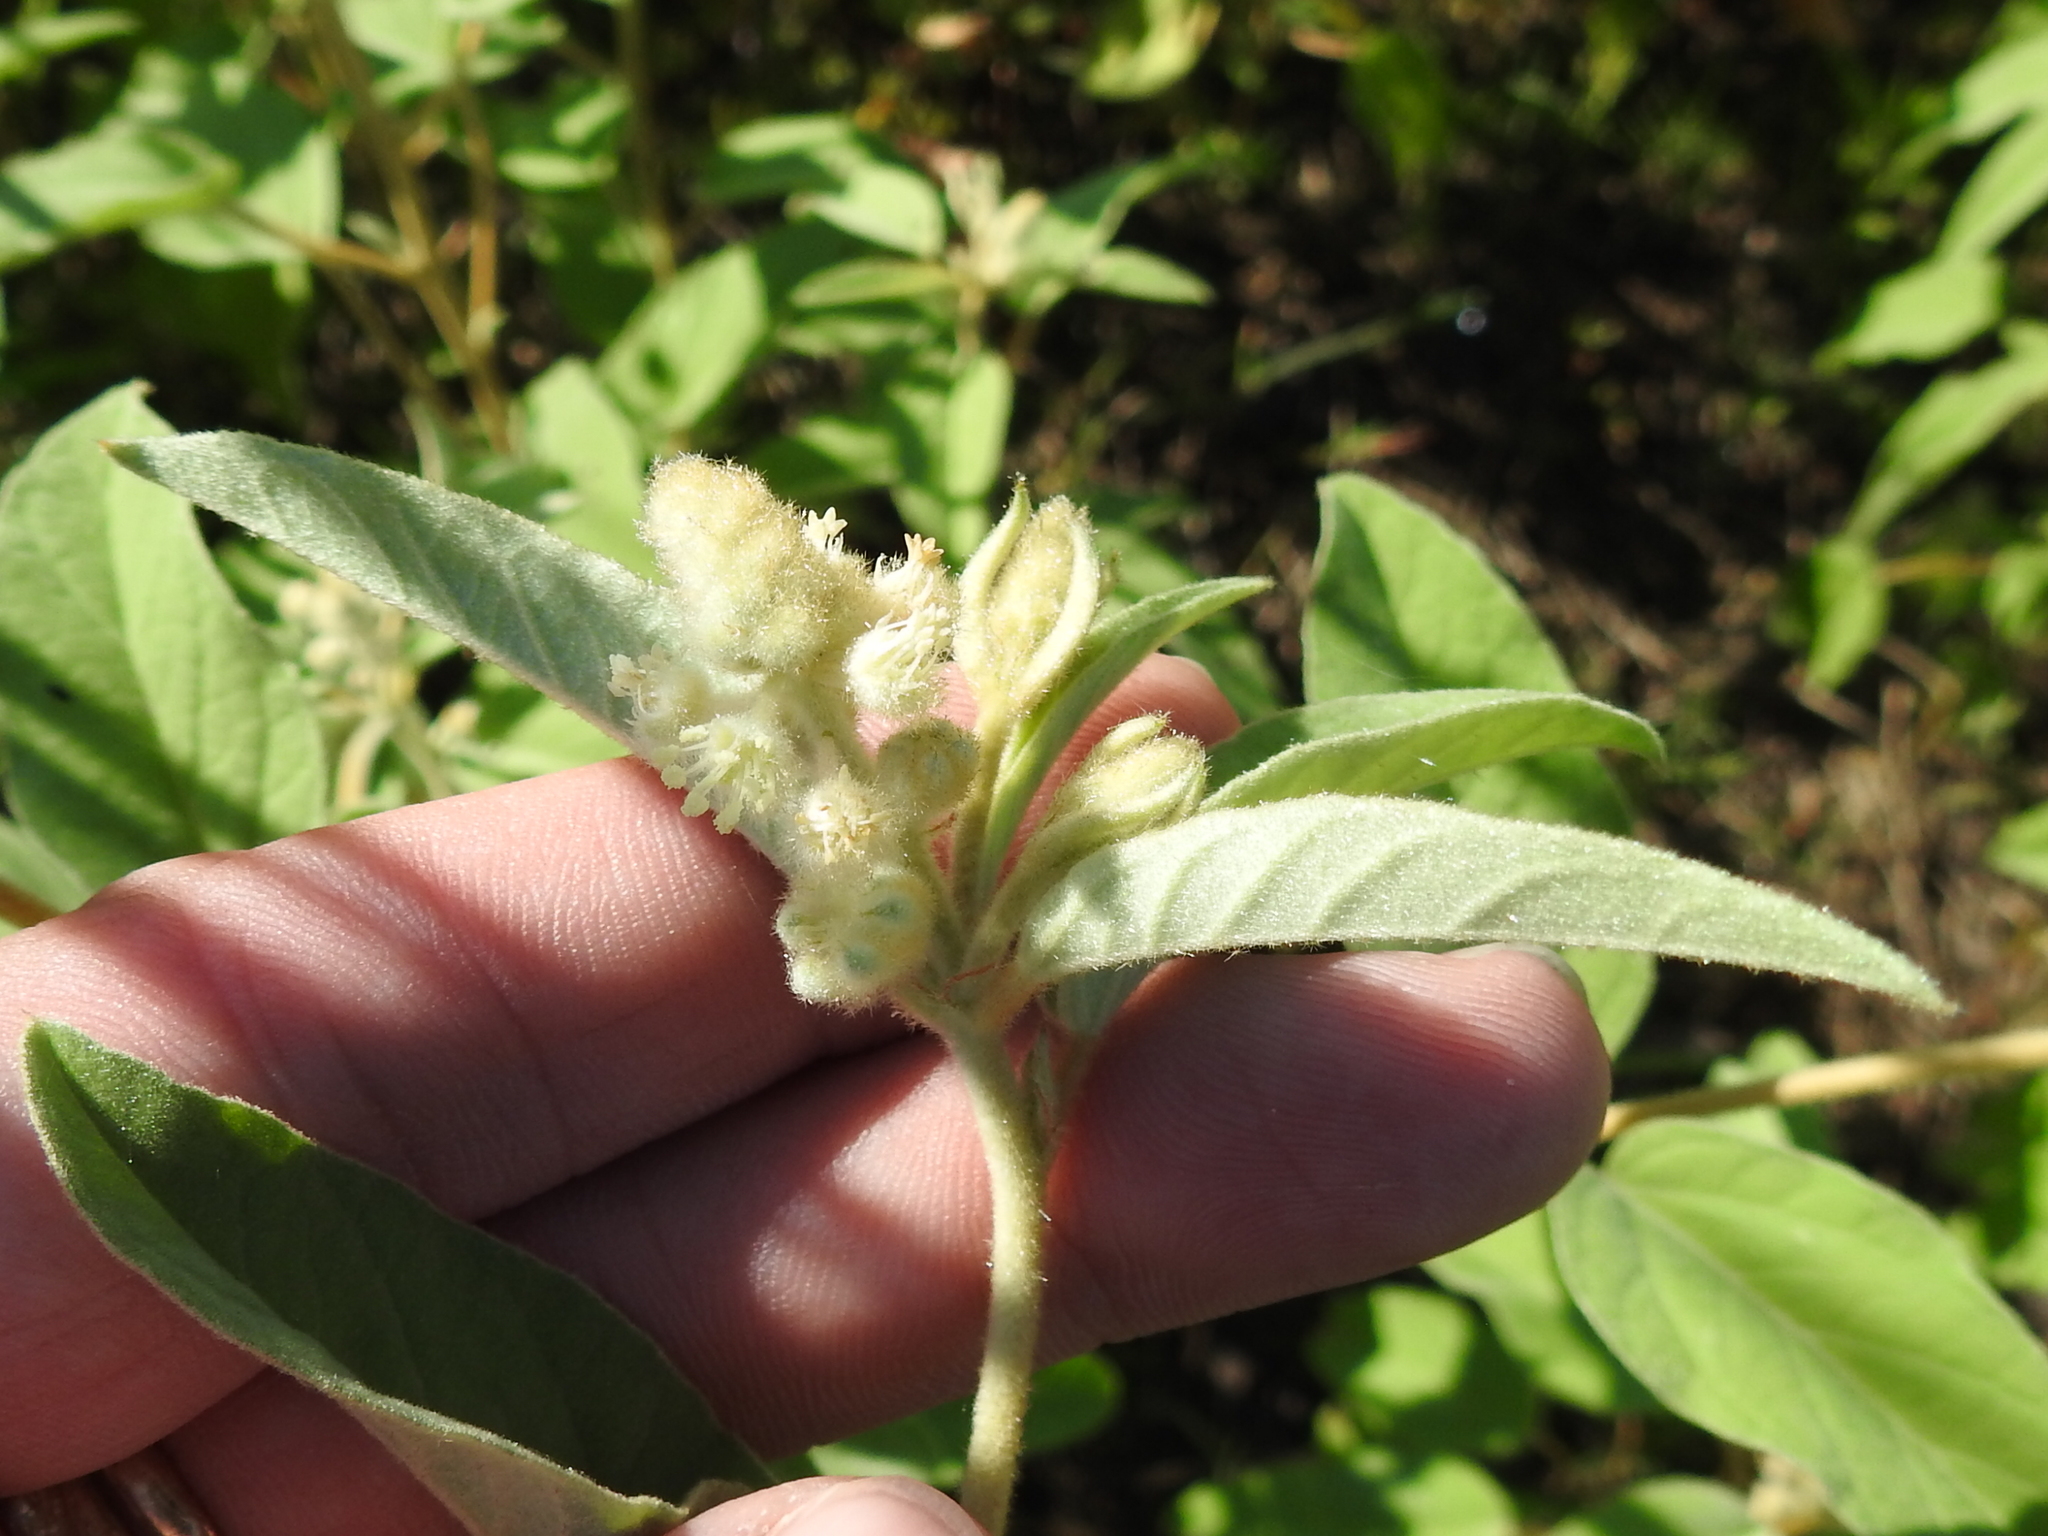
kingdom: Plantae
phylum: Tracheophyta
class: Magnoliopsida
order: Malpighiales
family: Euphorbiaceae
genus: Croton
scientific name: Croton lindheimeri
